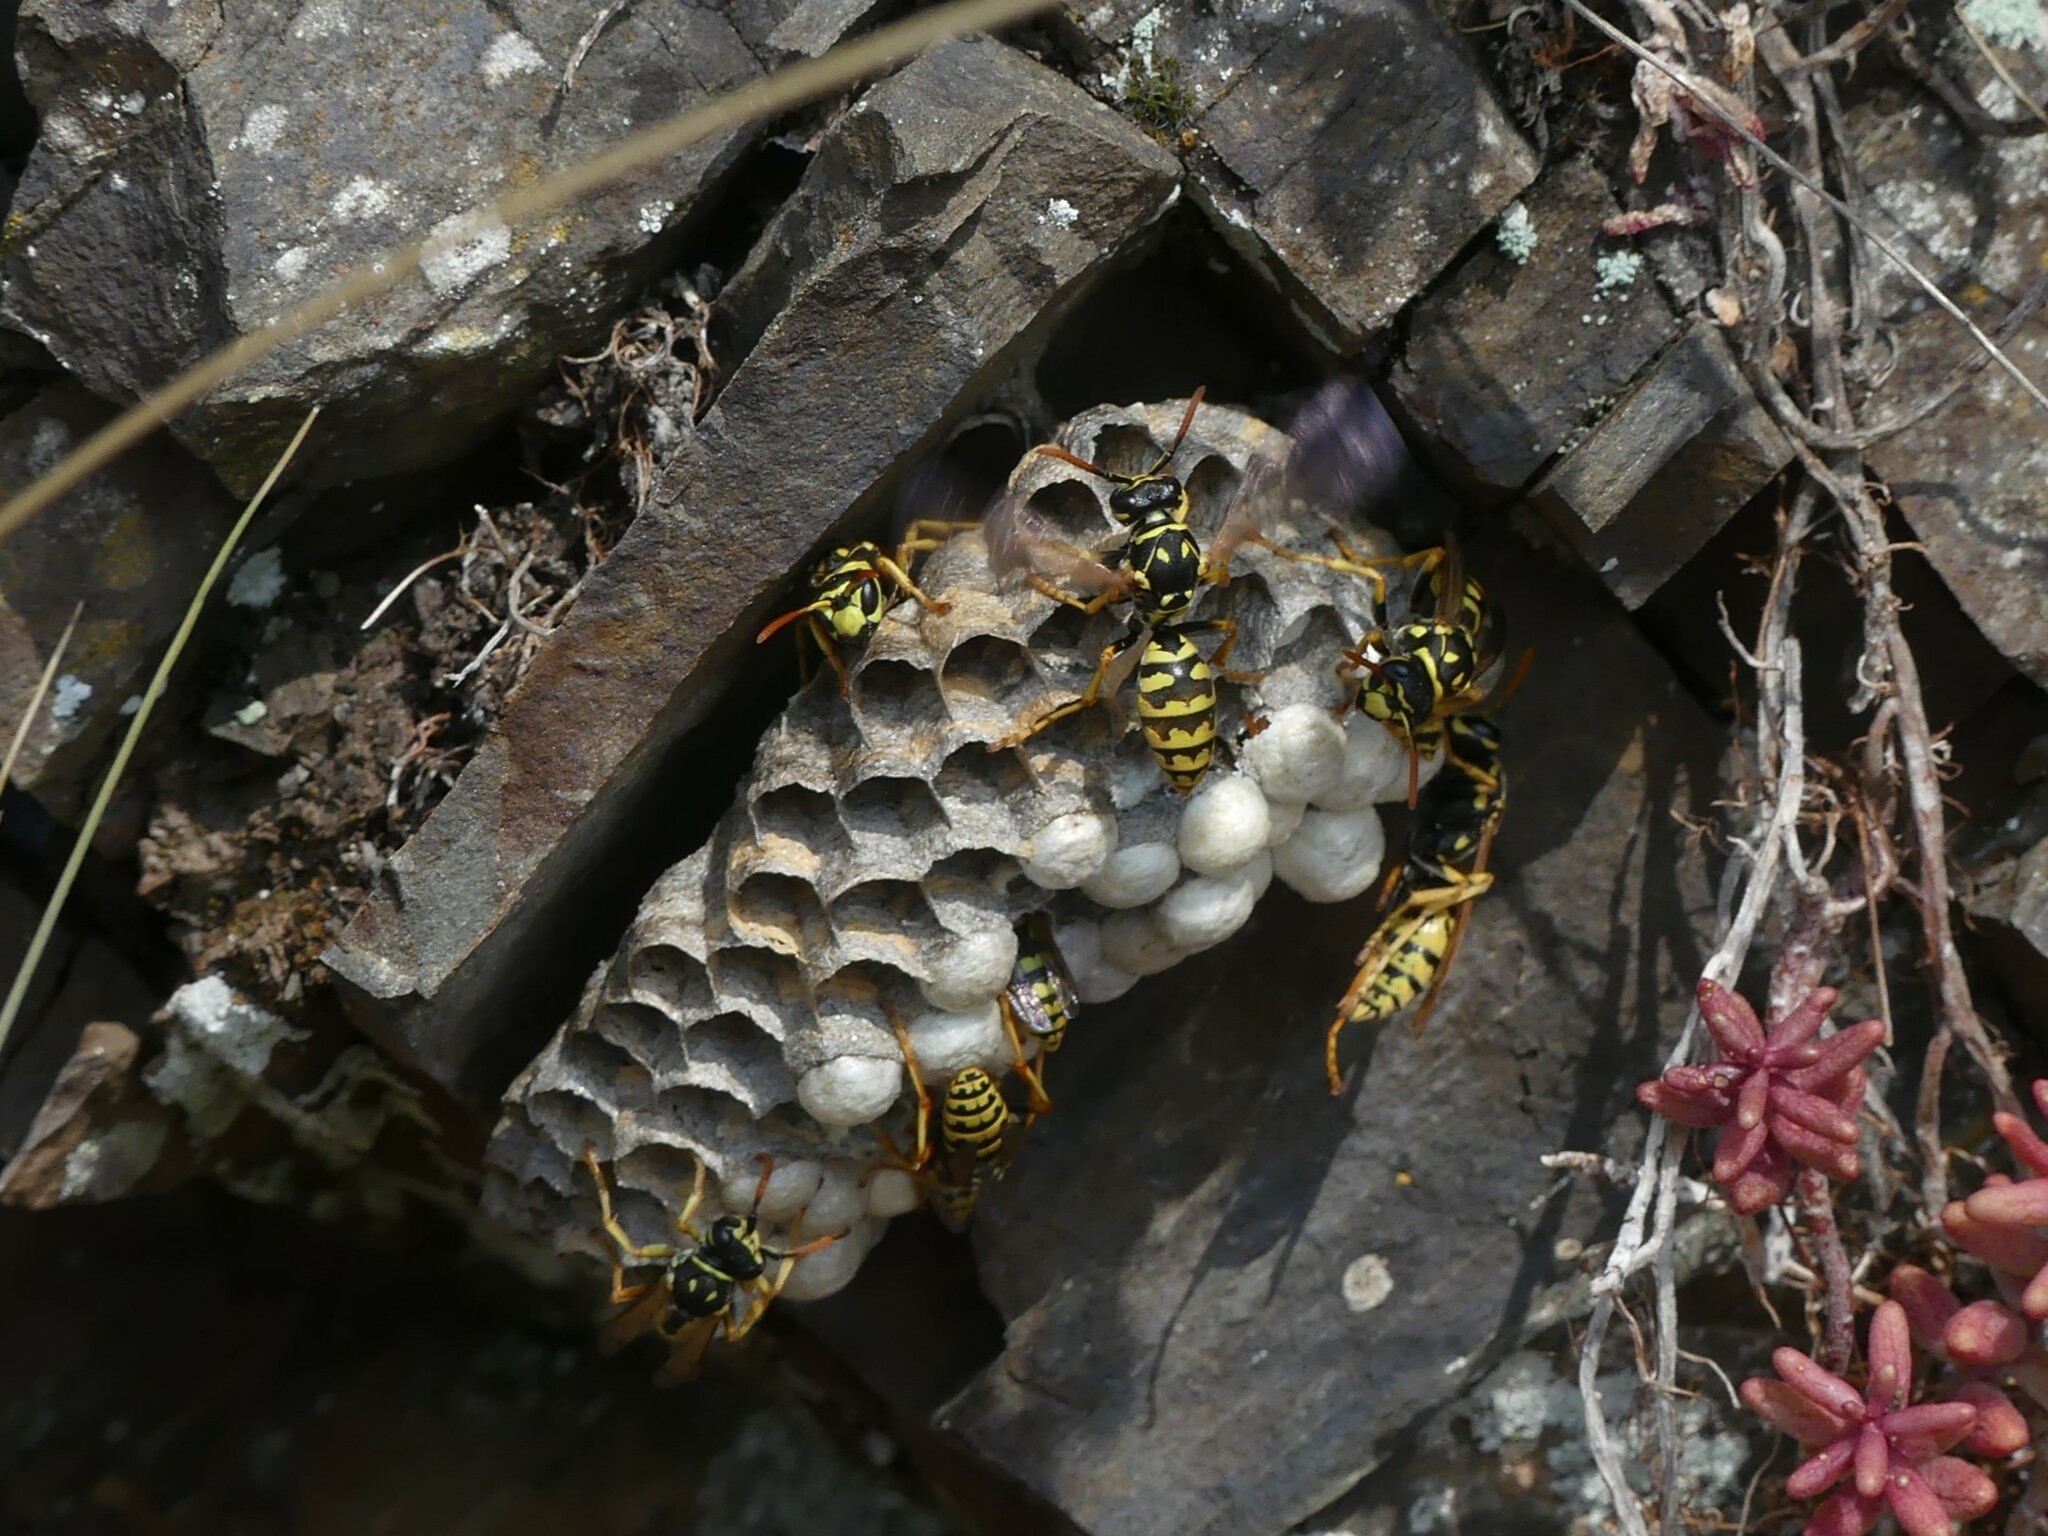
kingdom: Animalia
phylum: Arthropoda
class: Insecta
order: Hymenoptera
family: Eumenidae
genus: Polistes
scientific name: Polistes dominula
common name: Paper wasp
